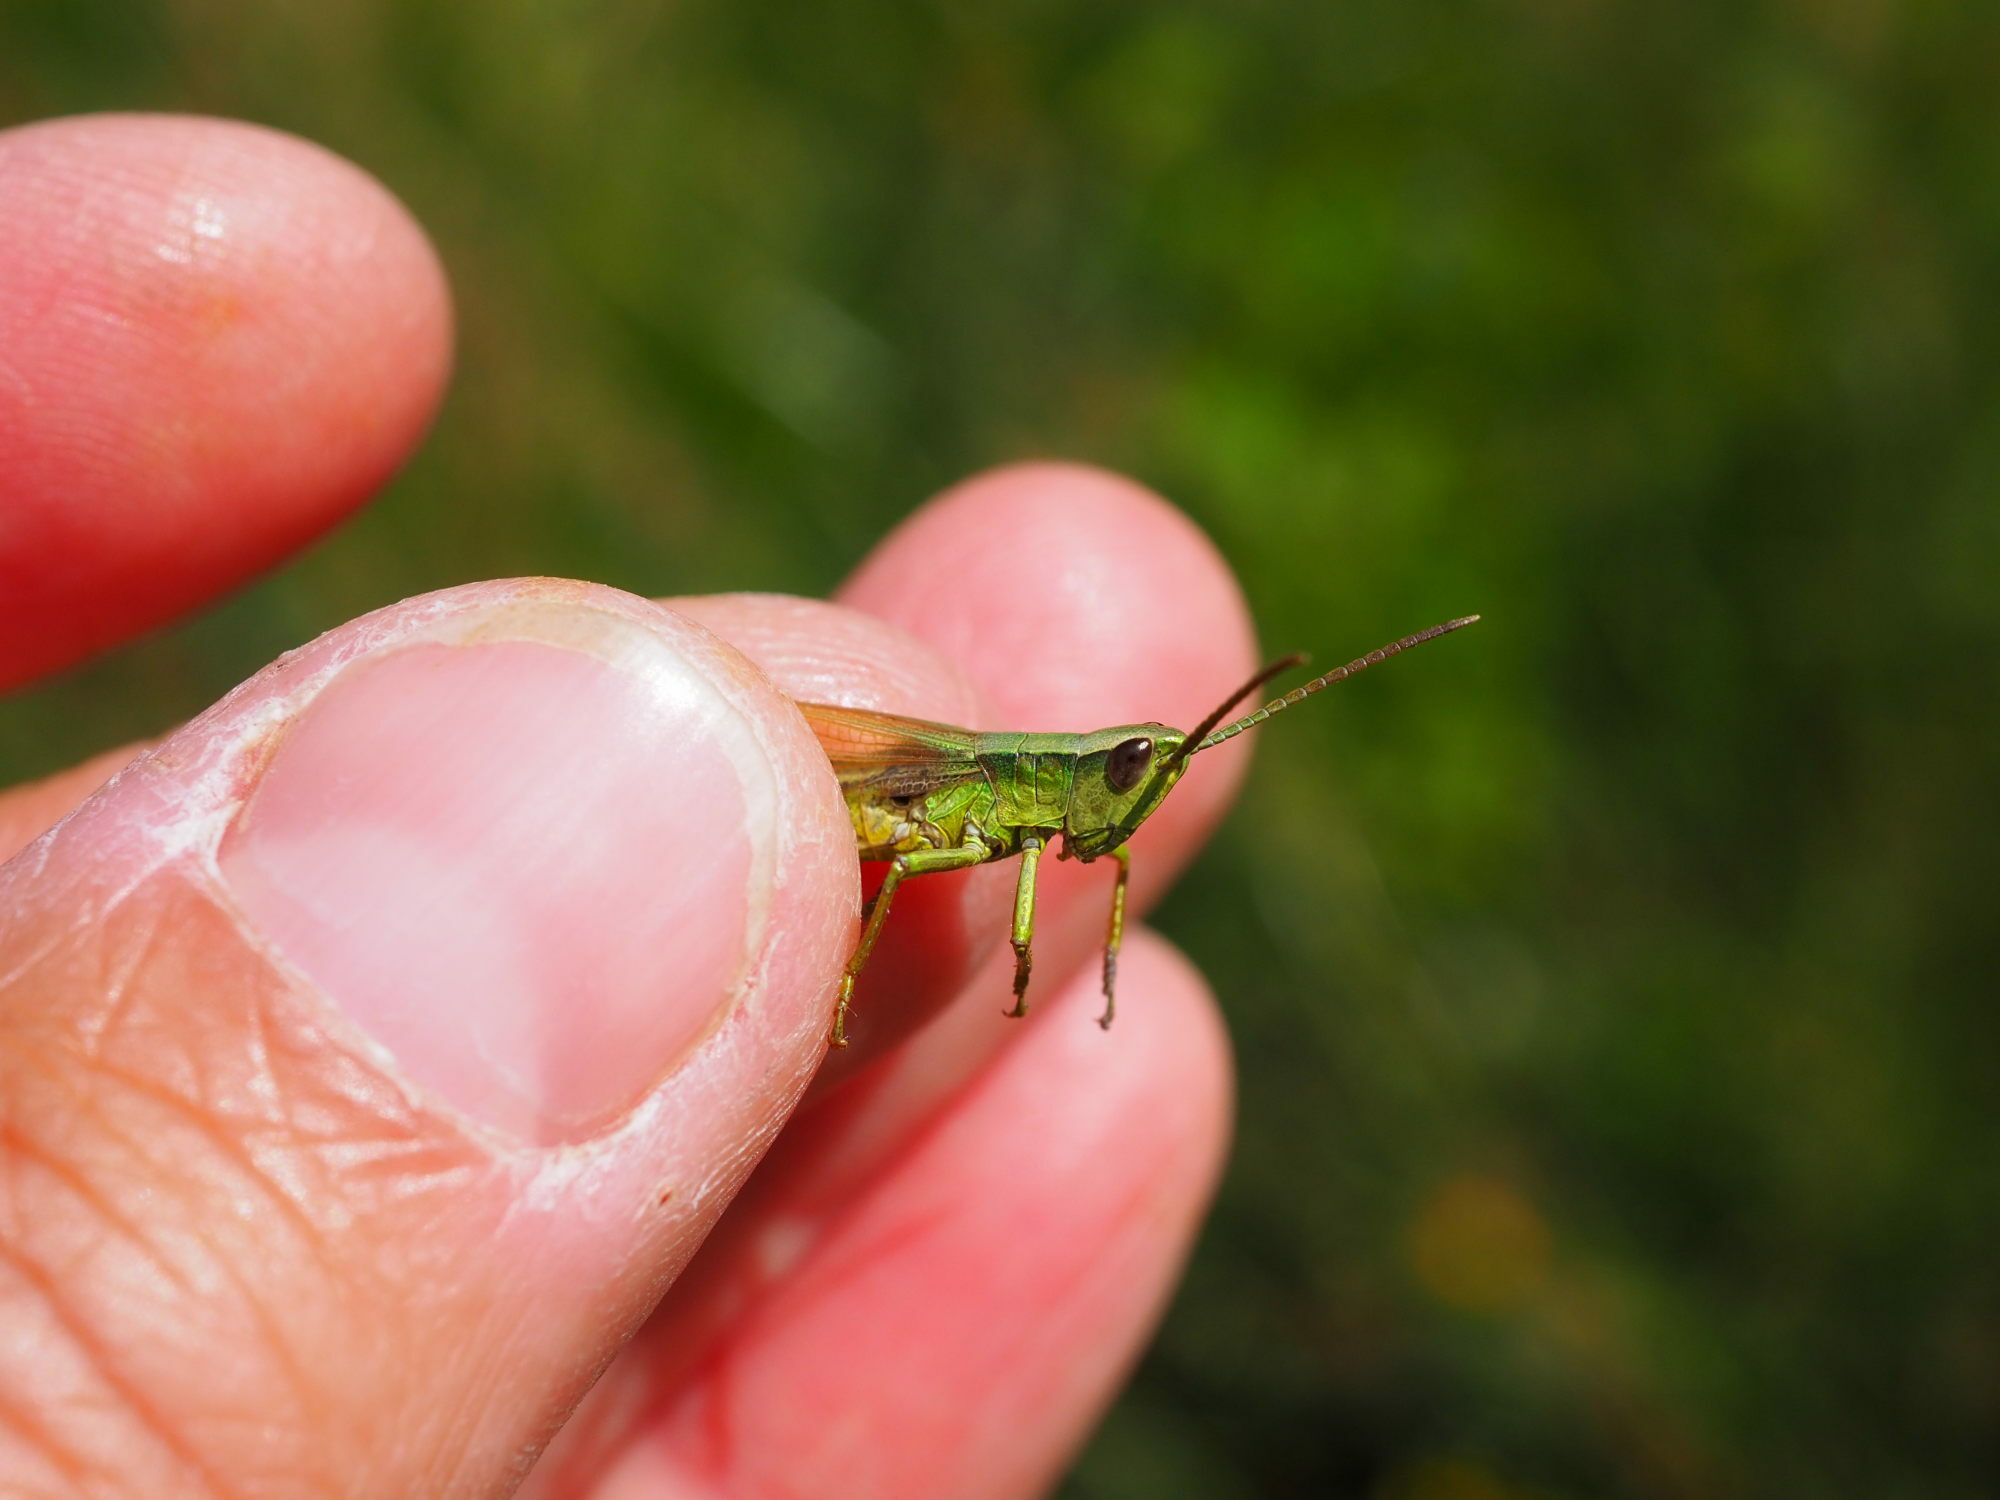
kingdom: Animalia
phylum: Arthropoda
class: Insecta
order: Orthoptera
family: Acrididae
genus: Chrysochraon
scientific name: Chrysochraon dispar
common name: Large gold grasshopper
